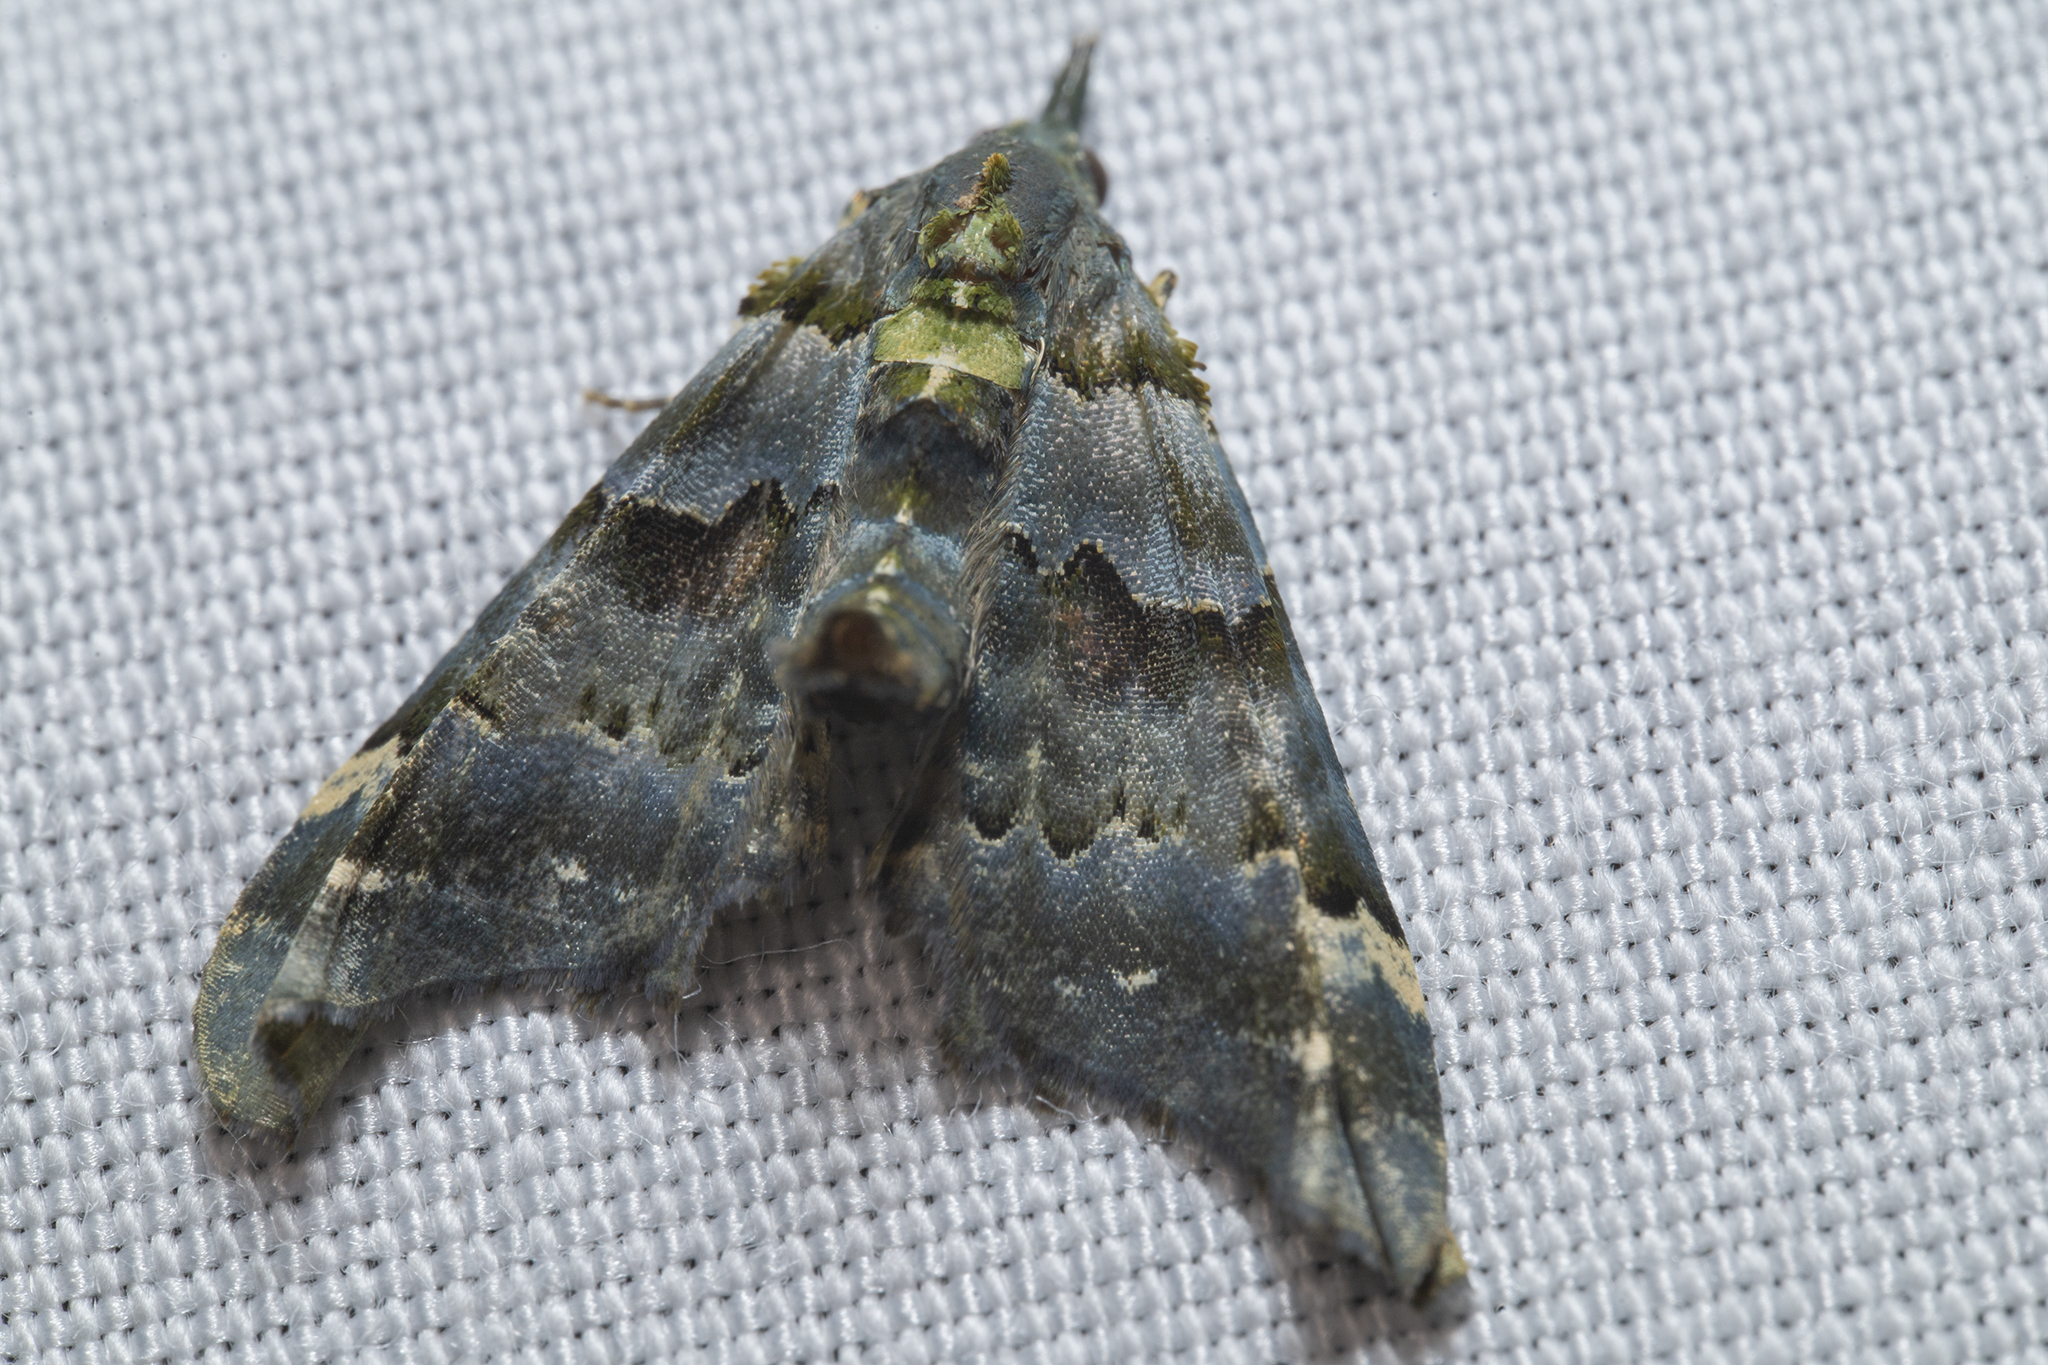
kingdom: Animalia
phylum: Arthropoda
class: Insecta
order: Lepidoptera
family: Geometridae
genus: Elvia
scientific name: Elvia glaucata
